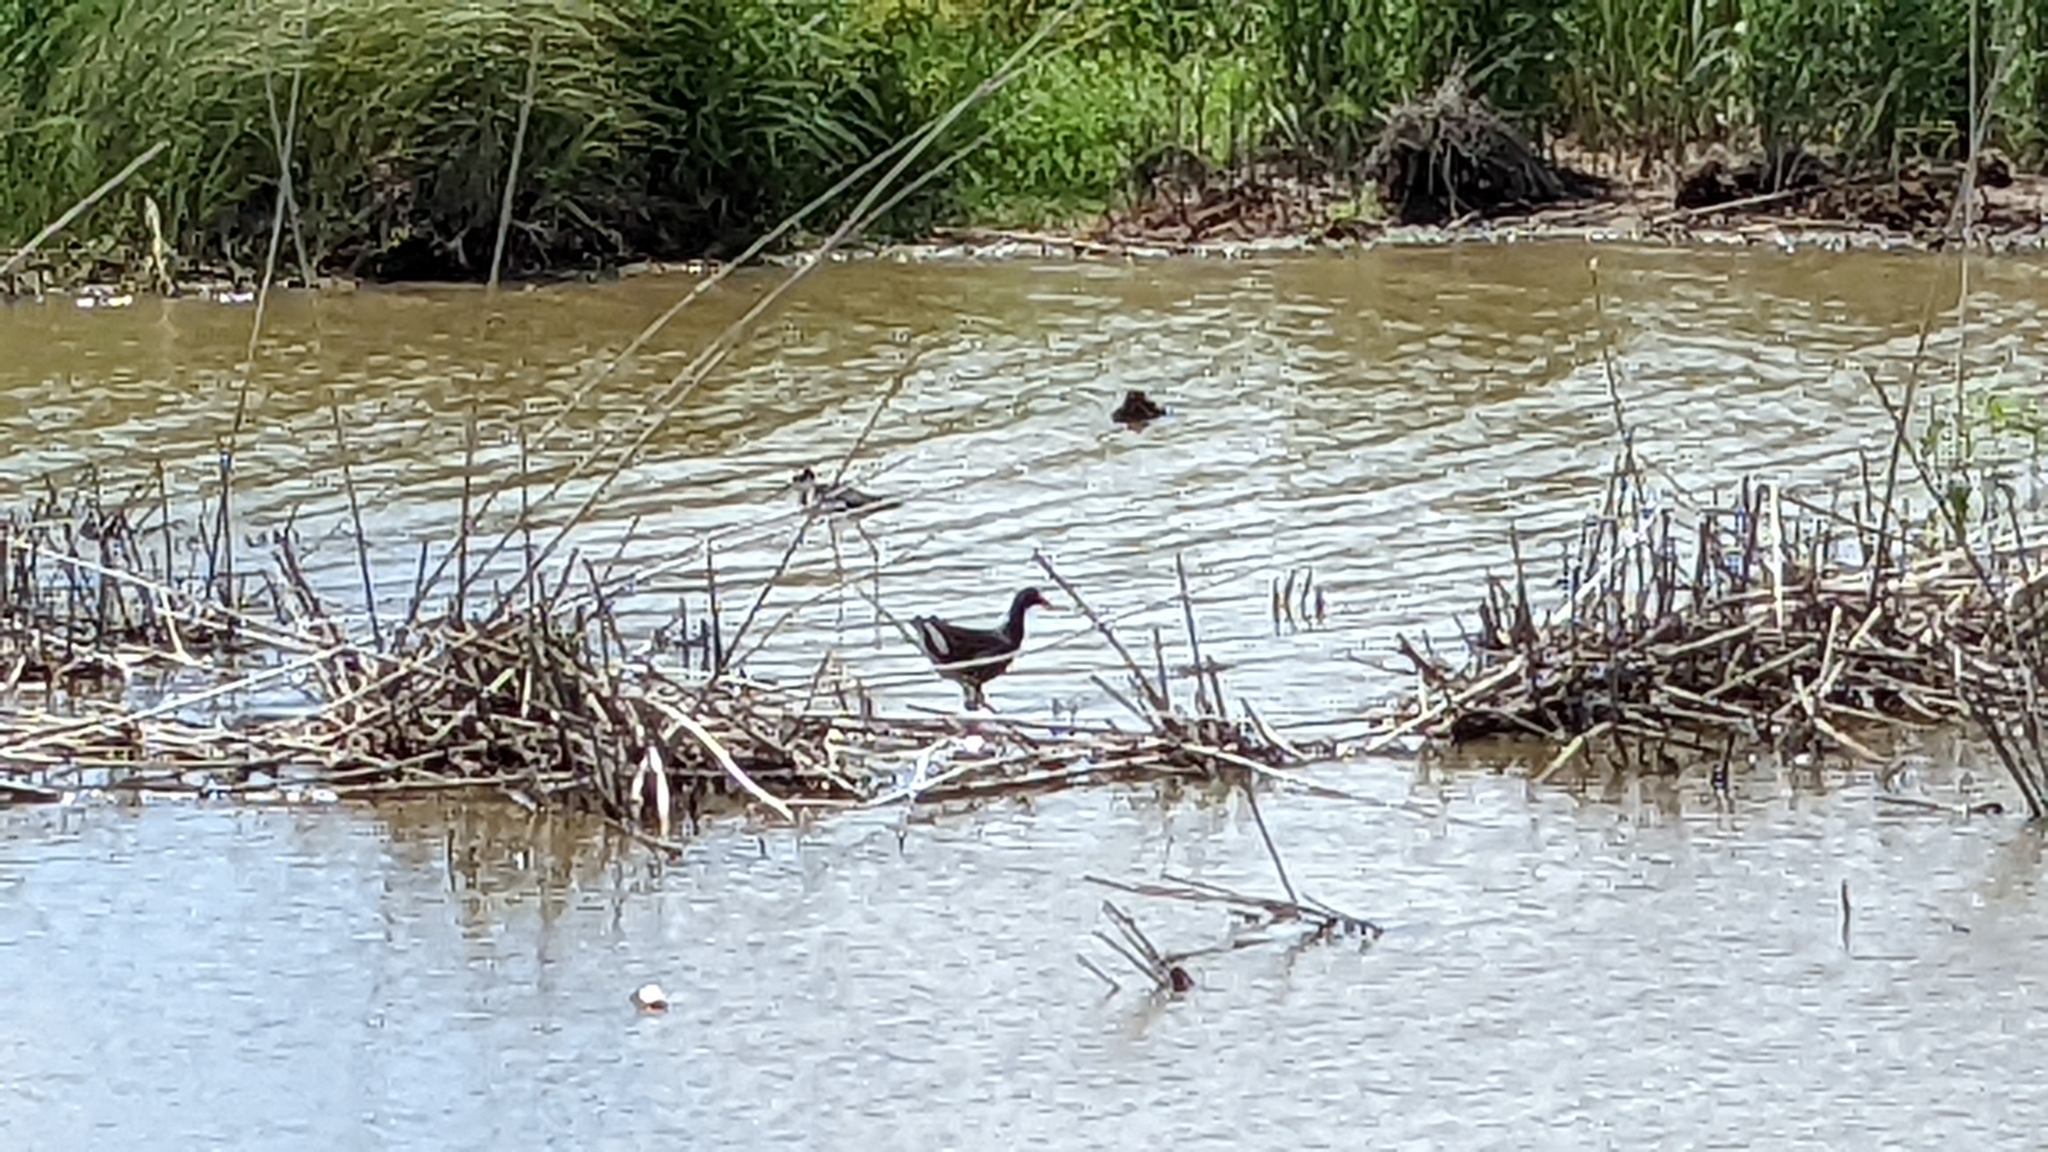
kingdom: Animalia
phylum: Chordata
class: Aves
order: Gruiformes
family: Rallidae
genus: Gallinula
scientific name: Gallinula chloropus
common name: Common moorhen
